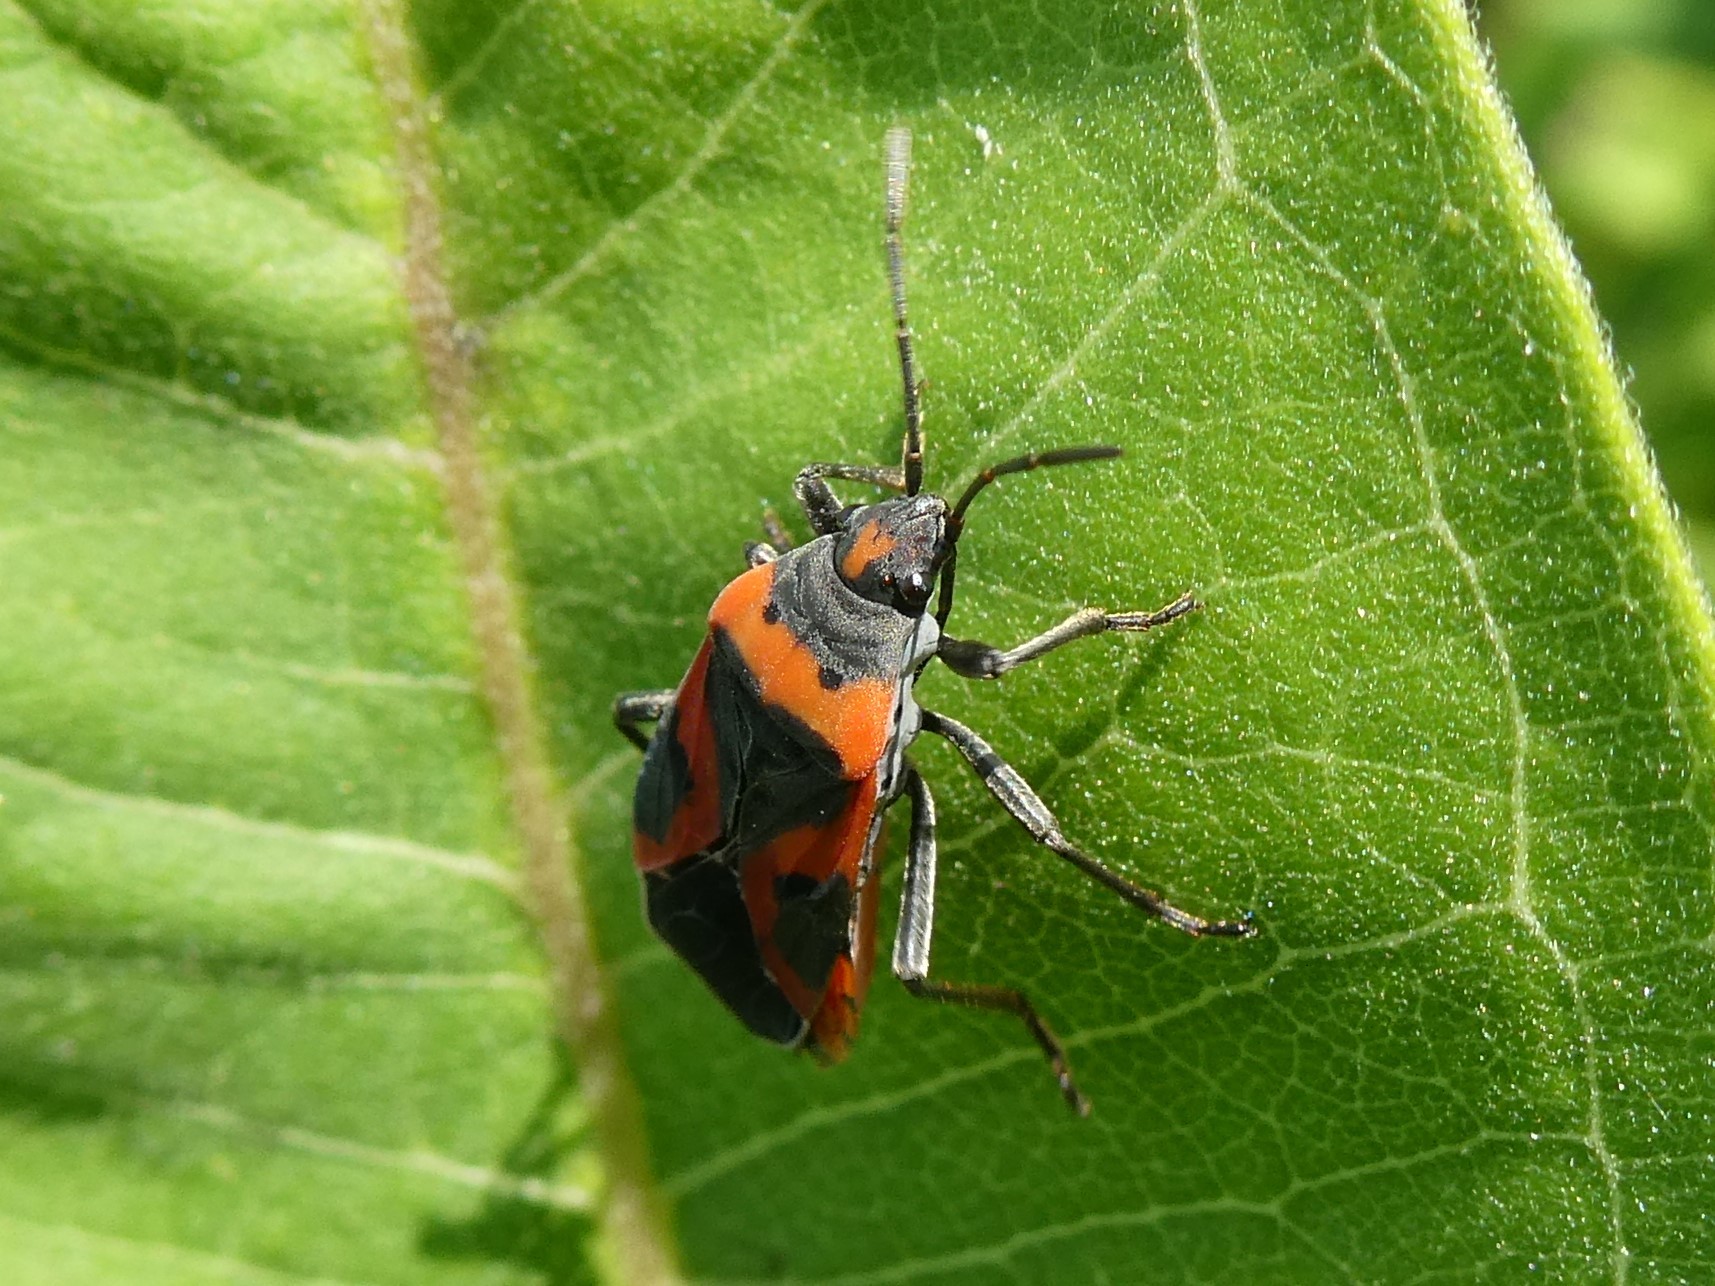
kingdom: Animalia
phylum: Arthropoda
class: Insecta
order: Hemiptera
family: Lygaeidae
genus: Lygaeus
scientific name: Lygaeus kalmii
